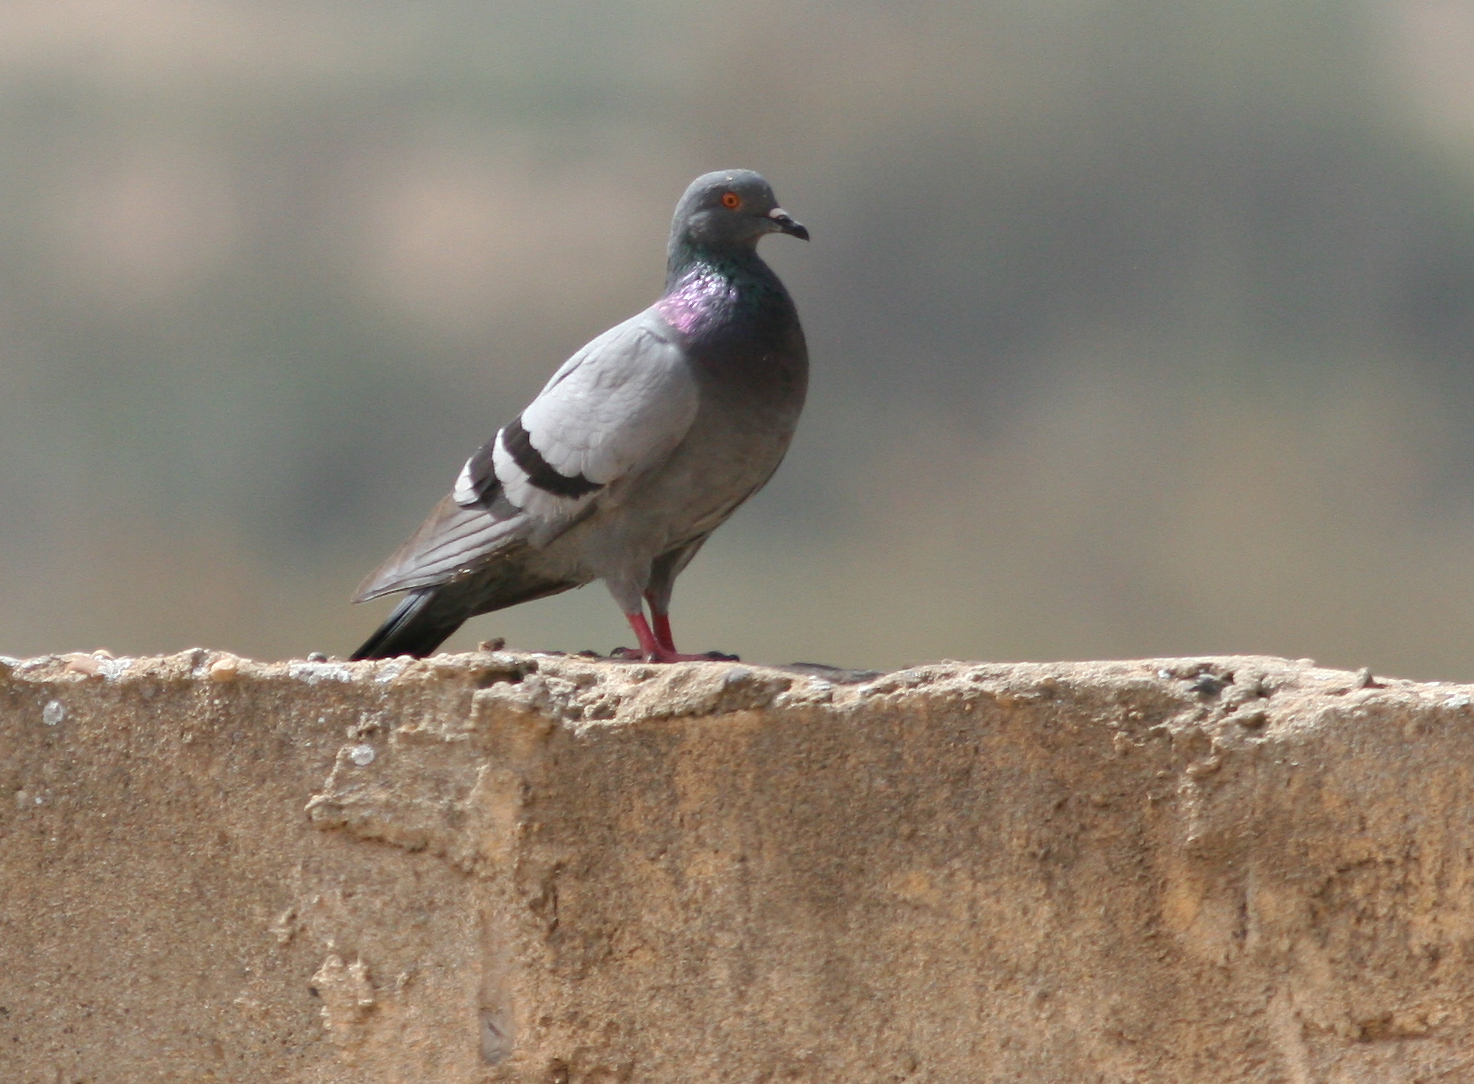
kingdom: Animalia
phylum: Chordata
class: Aves
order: Columbiformes
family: Columbidae
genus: Columba
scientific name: Columba livia
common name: Rock pigeon
